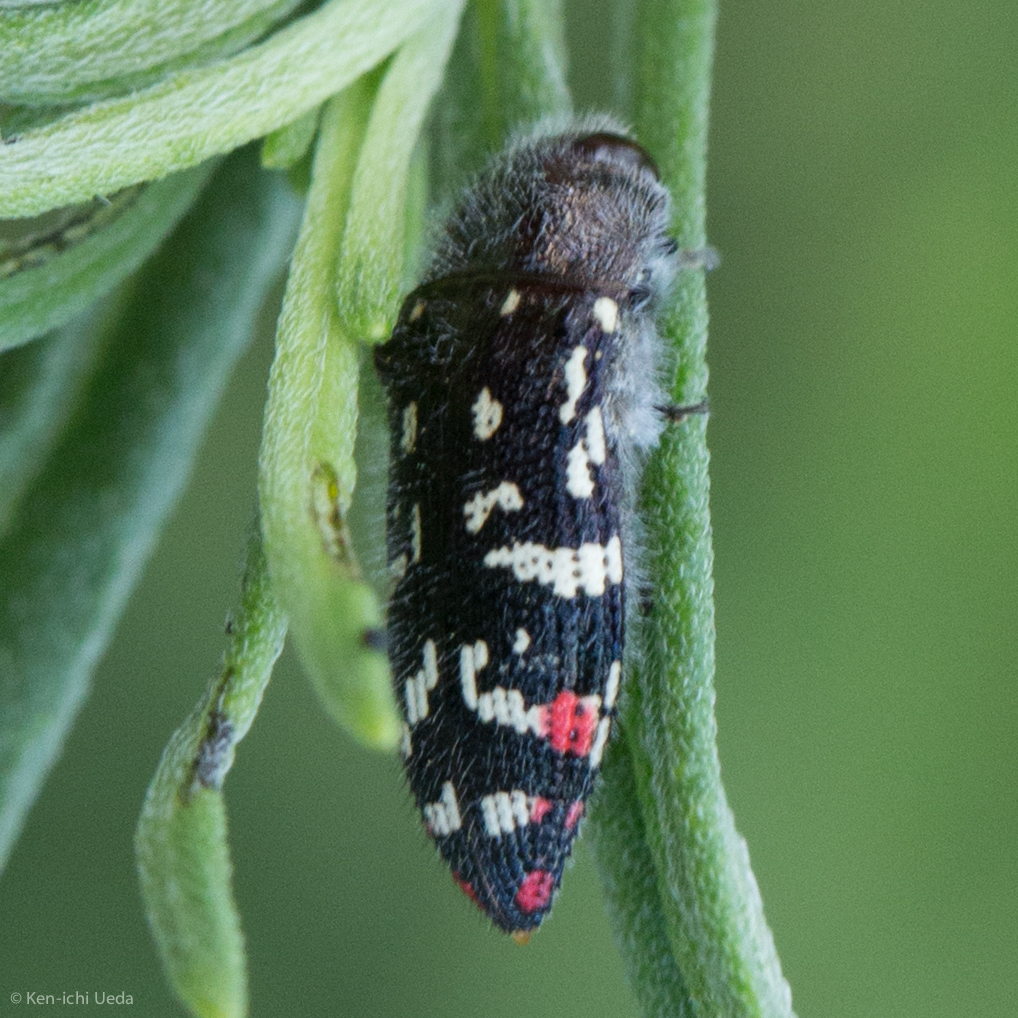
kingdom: Animalia
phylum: Arthropoda
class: Insecta
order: Coleoptera
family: Buprestidae
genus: Acmaeodera
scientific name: Acmaeodera rubronotata
